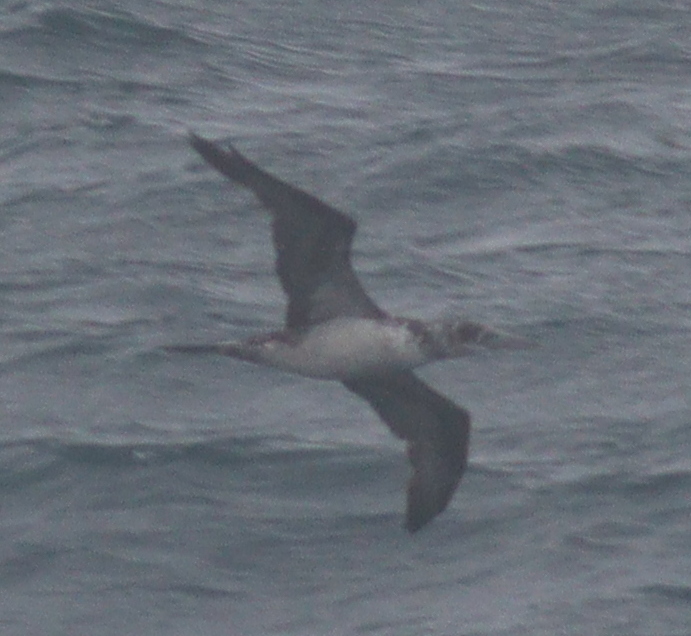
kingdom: Animalia
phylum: Chordata
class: Aves
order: Suliformes
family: Sulidae
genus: Morus
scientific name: Morus bassanus
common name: Northern gannet
